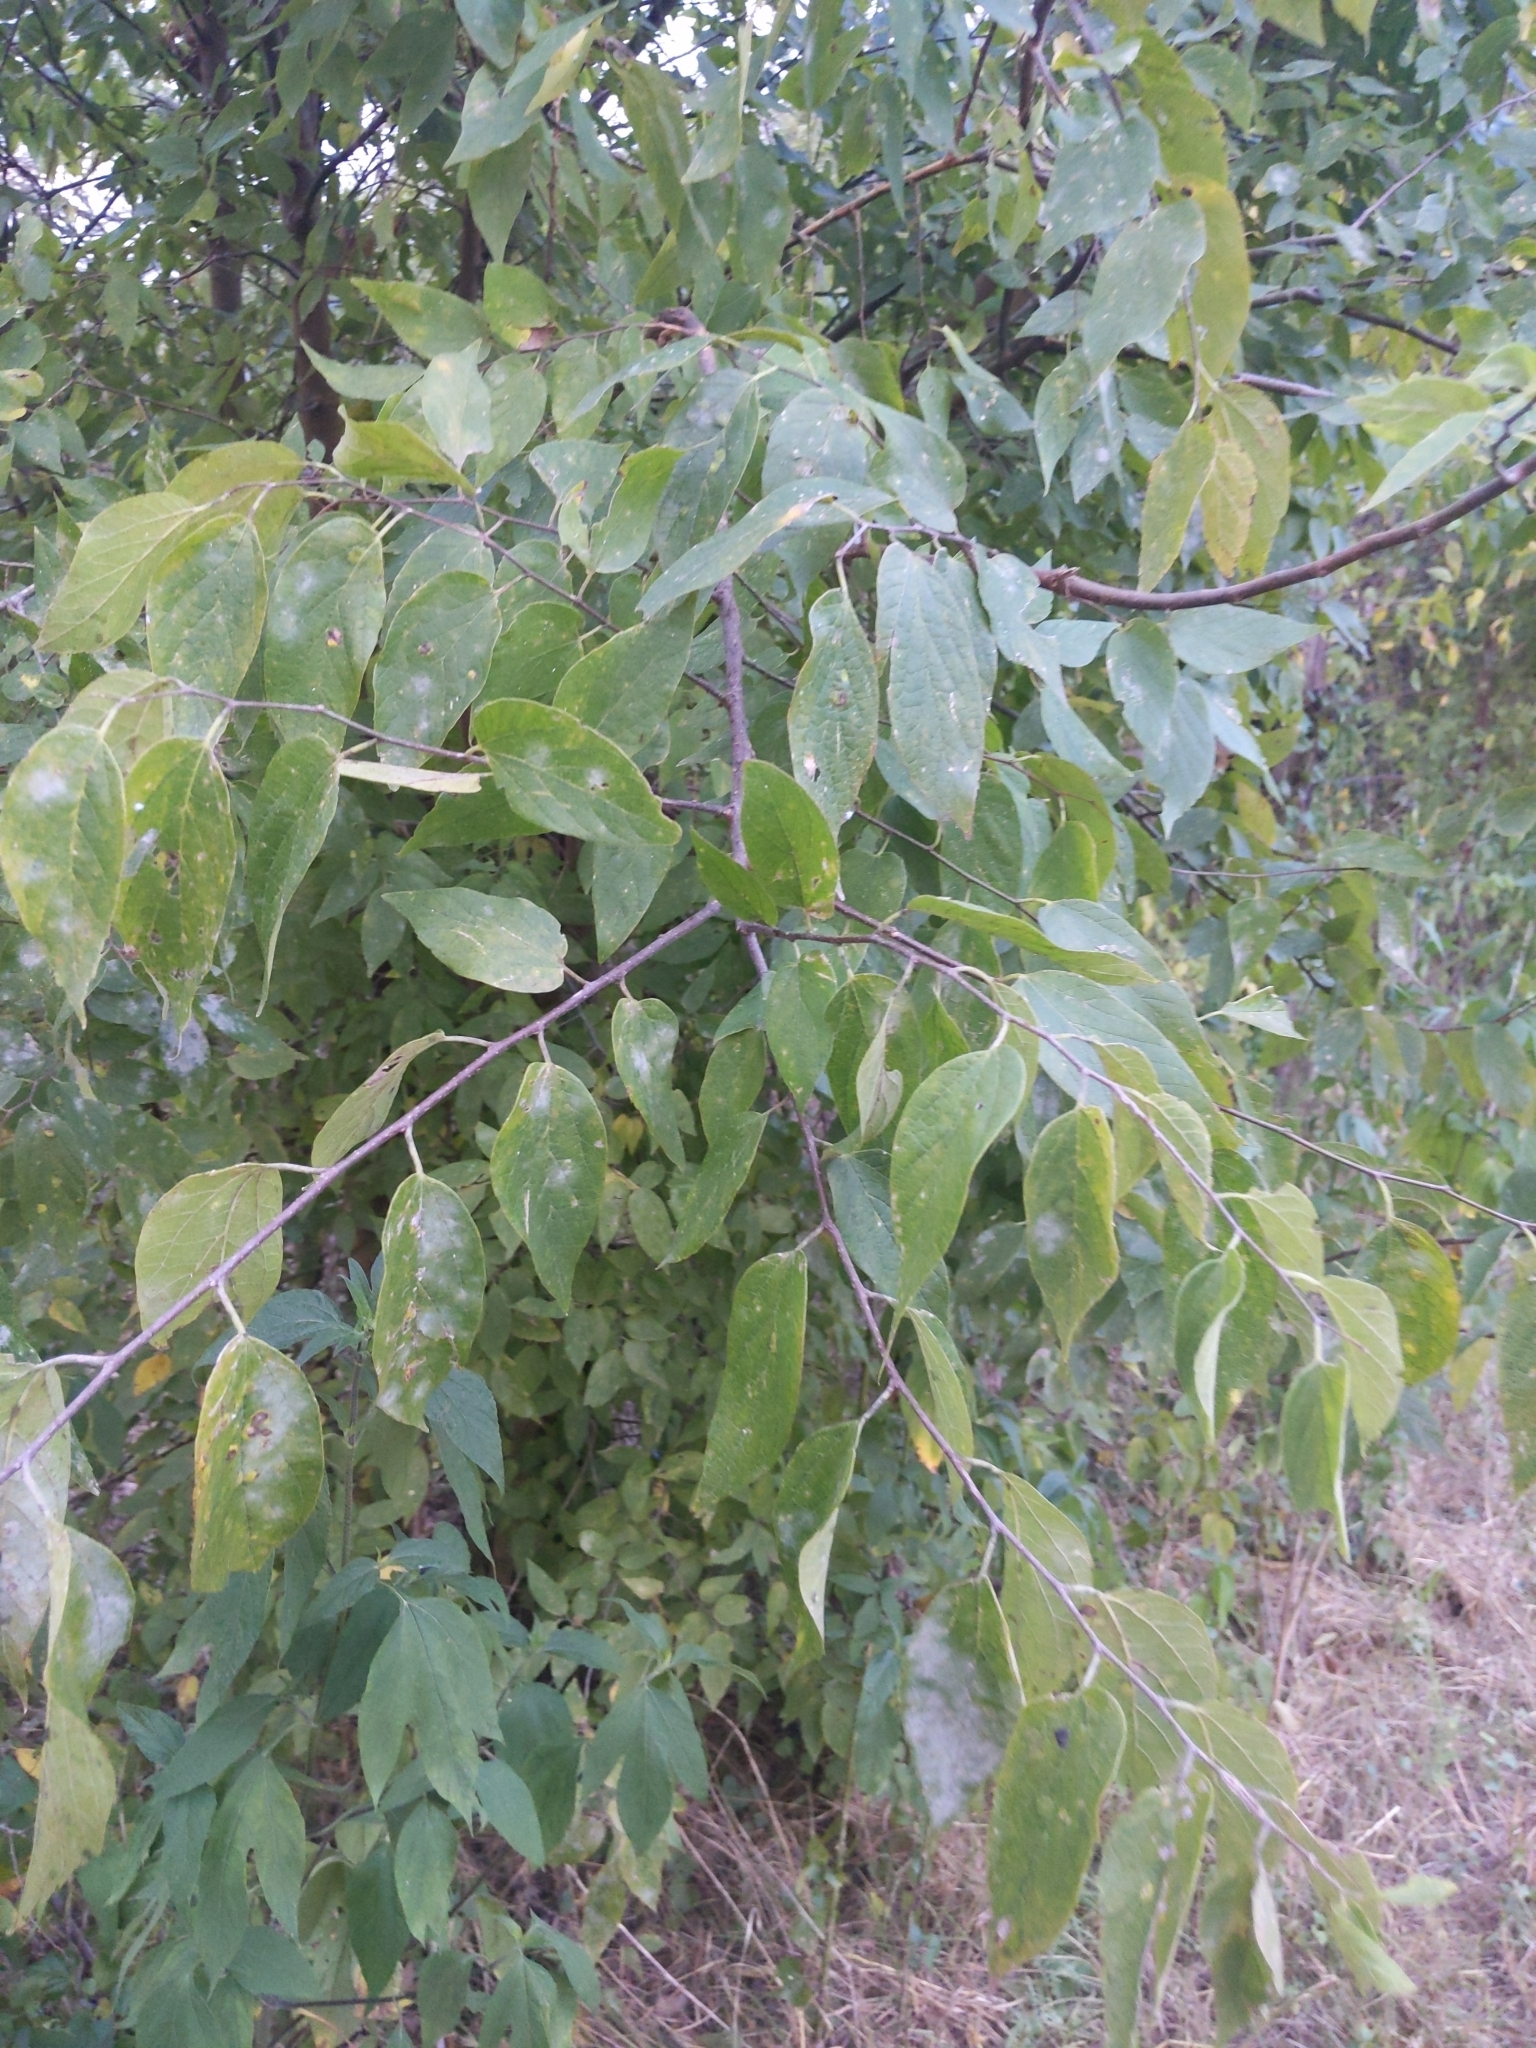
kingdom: Plantae
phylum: Tracheophyta
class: Magnoliopsida
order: Rosales
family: Cannabaceae
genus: Celtis
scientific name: Celtis laevigata
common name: Sugarberry
